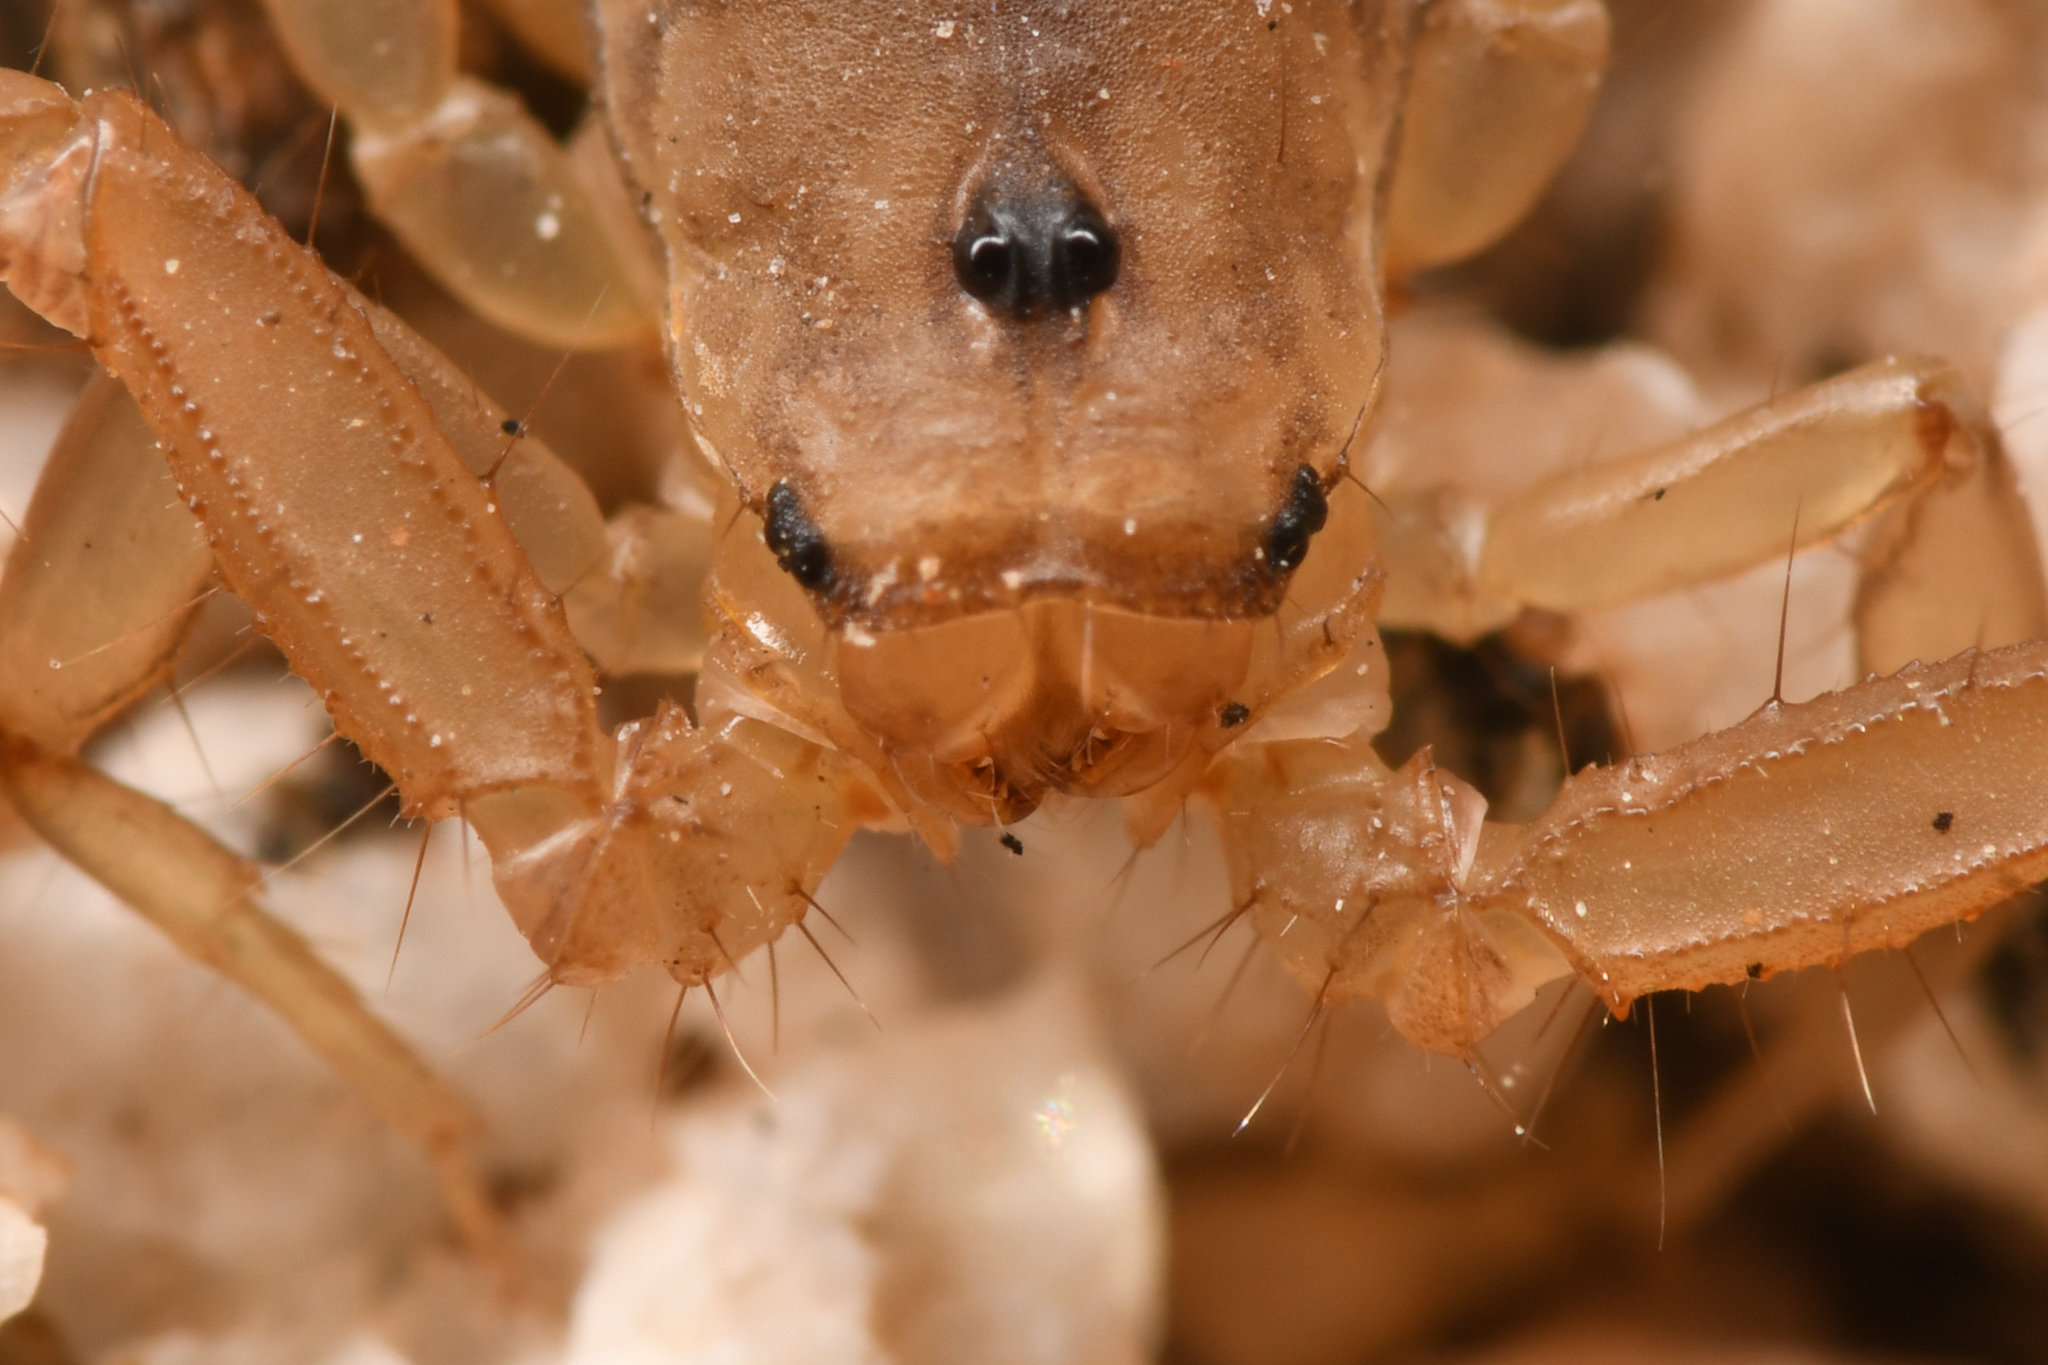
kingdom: Animalia
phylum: Arthropoda
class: Arachnida
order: Scorpiones
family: Vaejovidae
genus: Serradigitus
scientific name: Serradigitus joshuaensis
